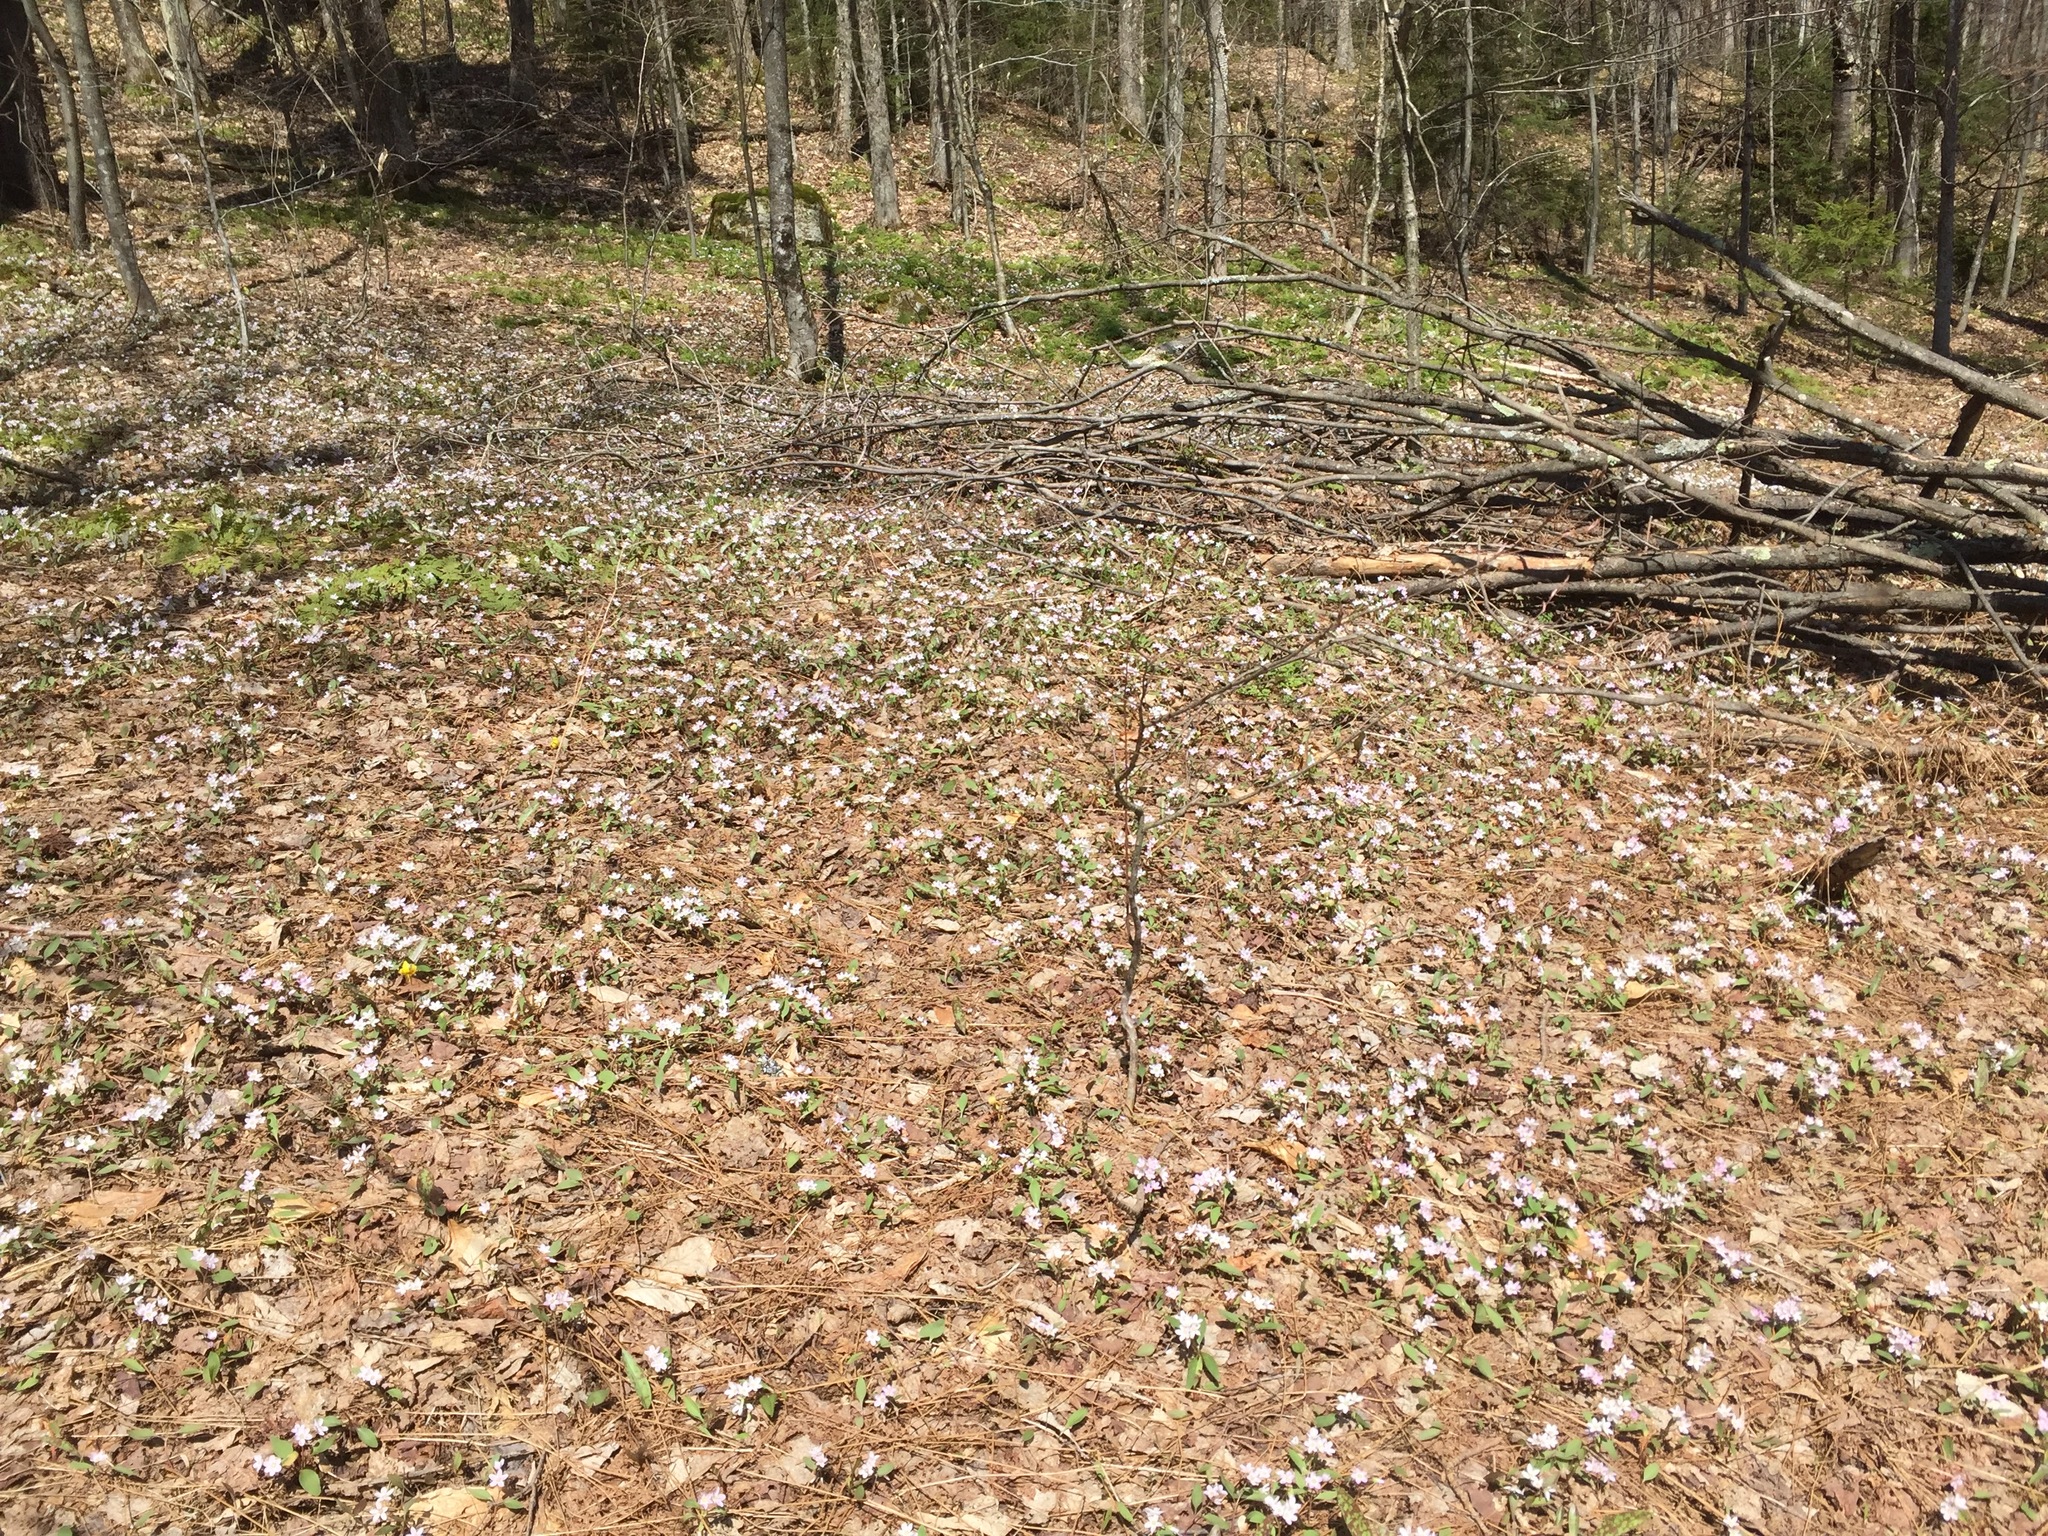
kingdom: Plantae
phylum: Tracheophyta
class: Magnoliopsida
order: Caryophyllales
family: Montiaceae
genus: Claytonia
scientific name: Claytonia caroliniana
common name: Carolina spring beauty
